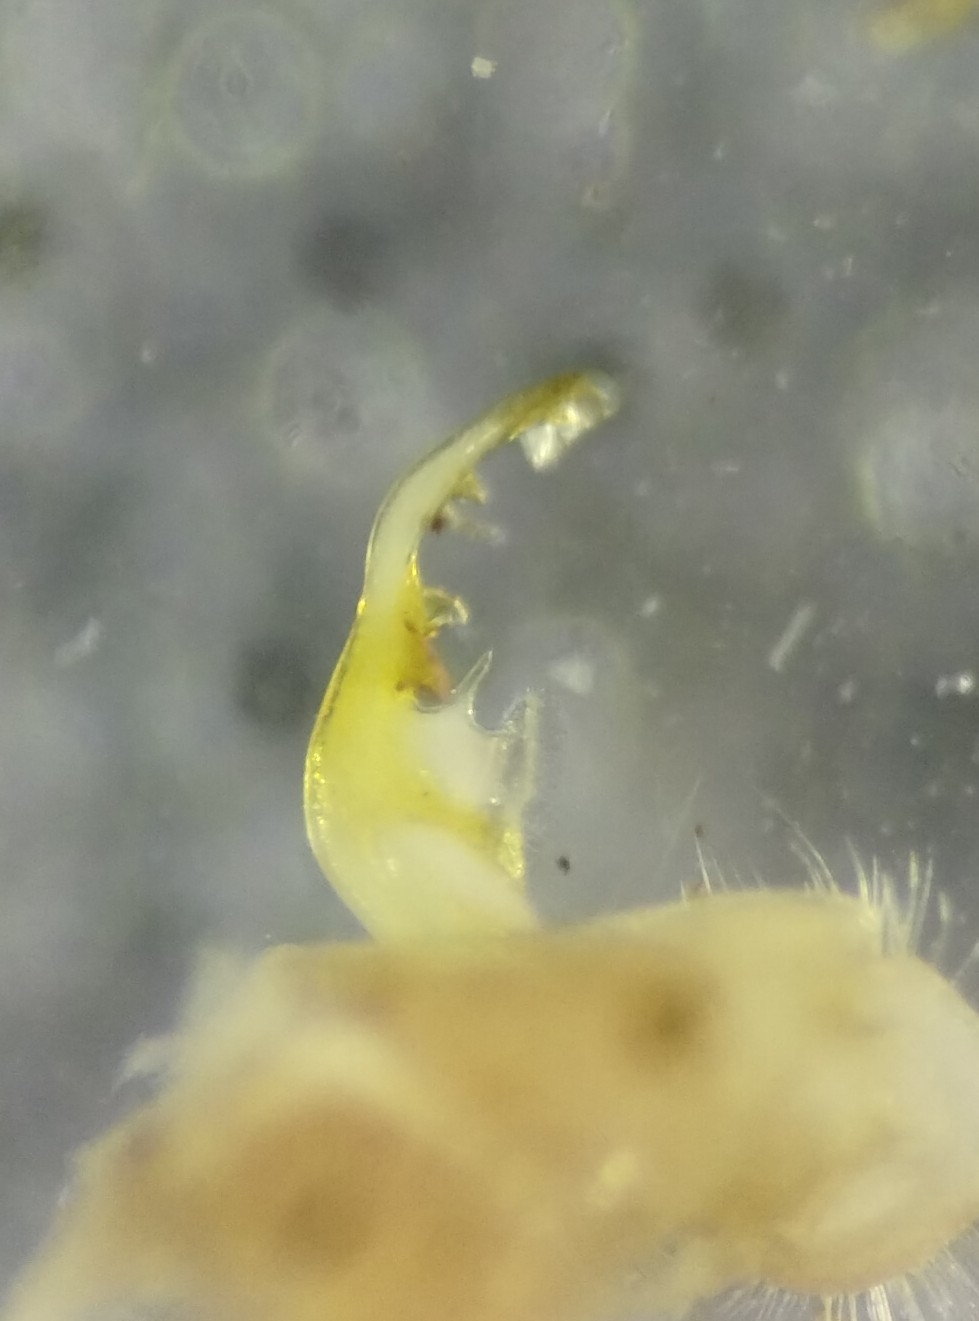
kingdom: Animalia
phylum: Arthropoda
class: Diplopoda
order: Polydesmida
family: Polydesmidae
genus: Pseudopolydesmus
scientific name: Pseudopolydesmus erasus
